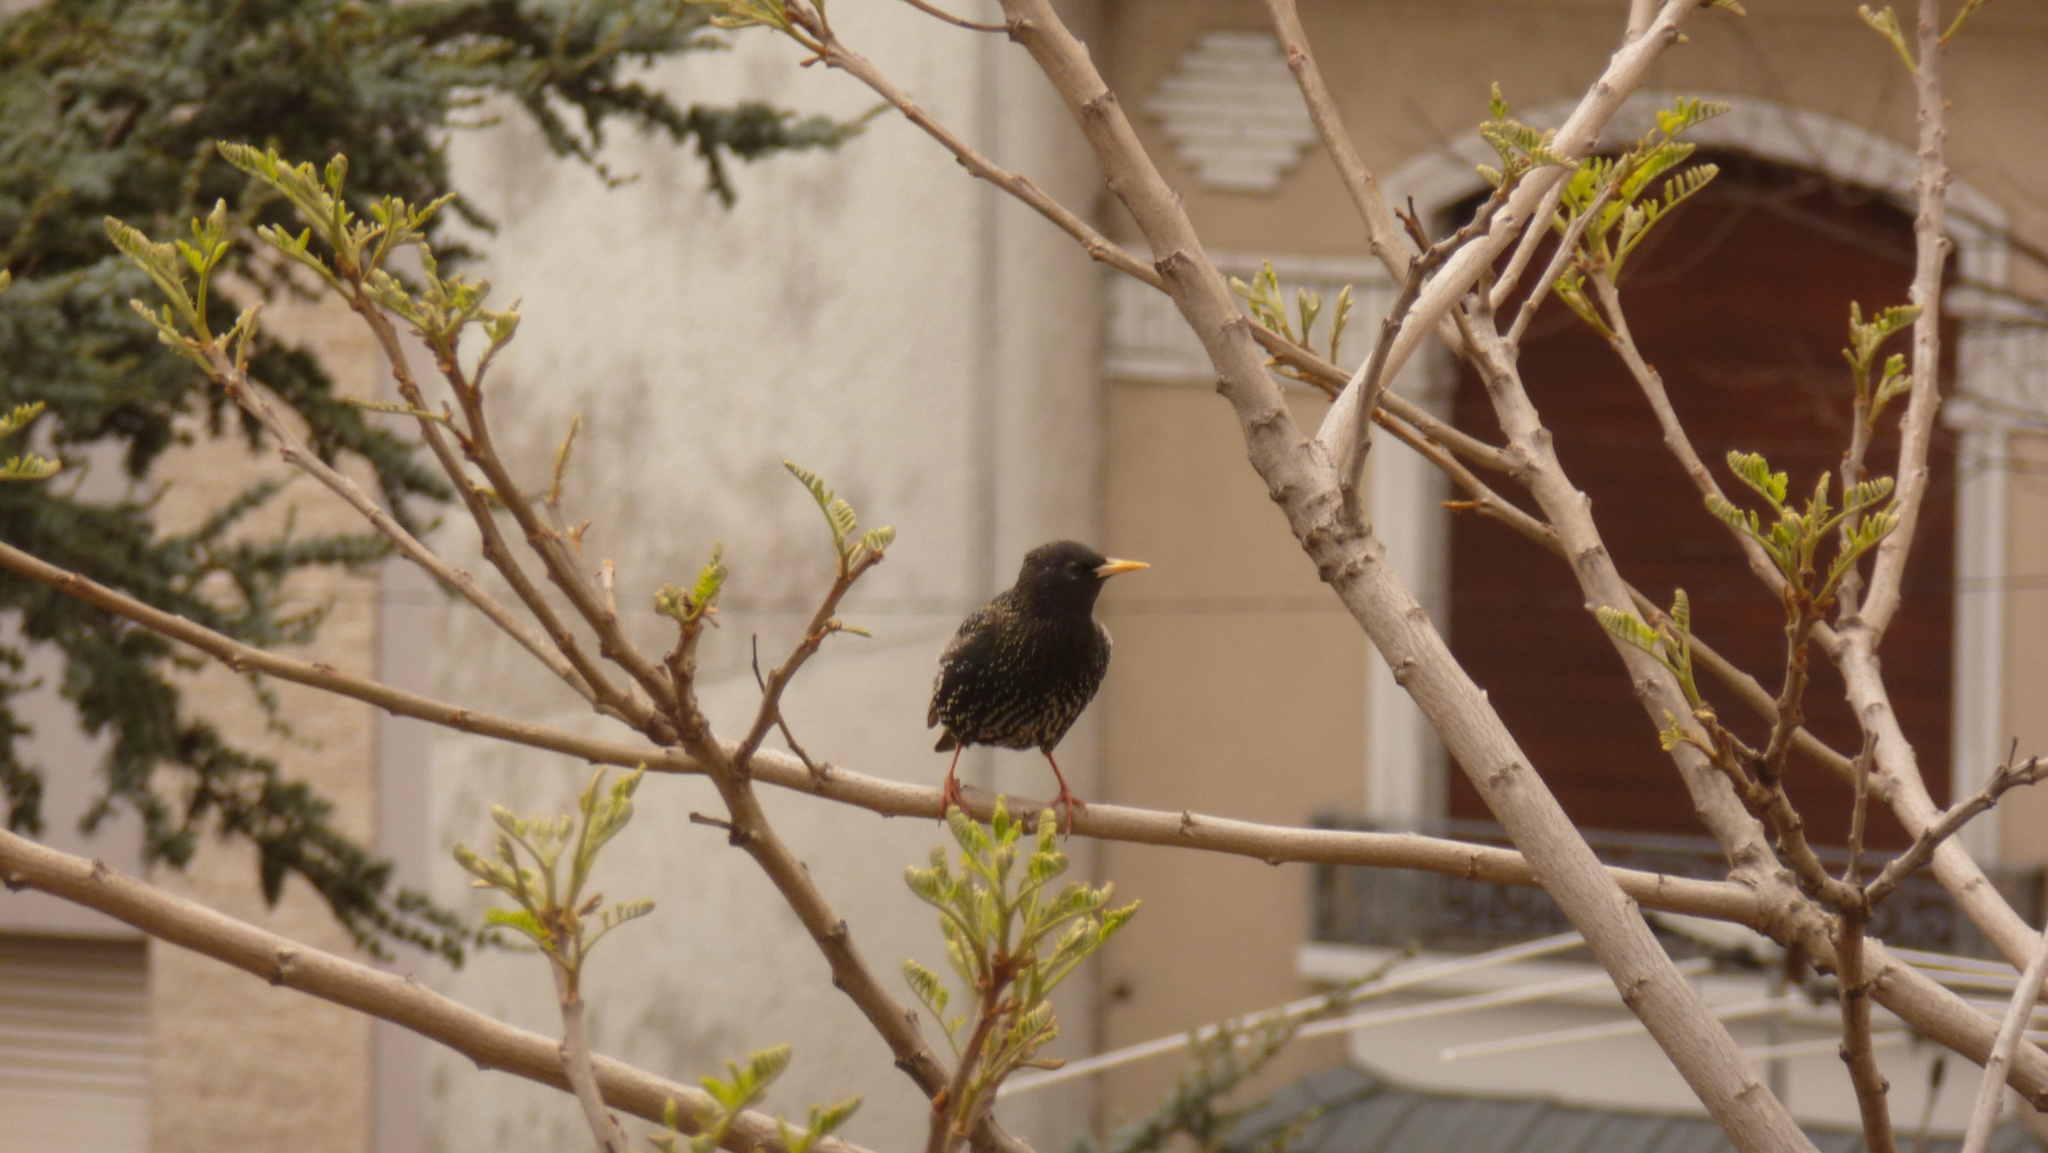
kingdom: Animalia
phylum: Chordata
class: Aves
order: Passeriformes
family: Sturnidae
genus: Sturnus
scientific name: Sturnus vulgaris
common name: Common starling
